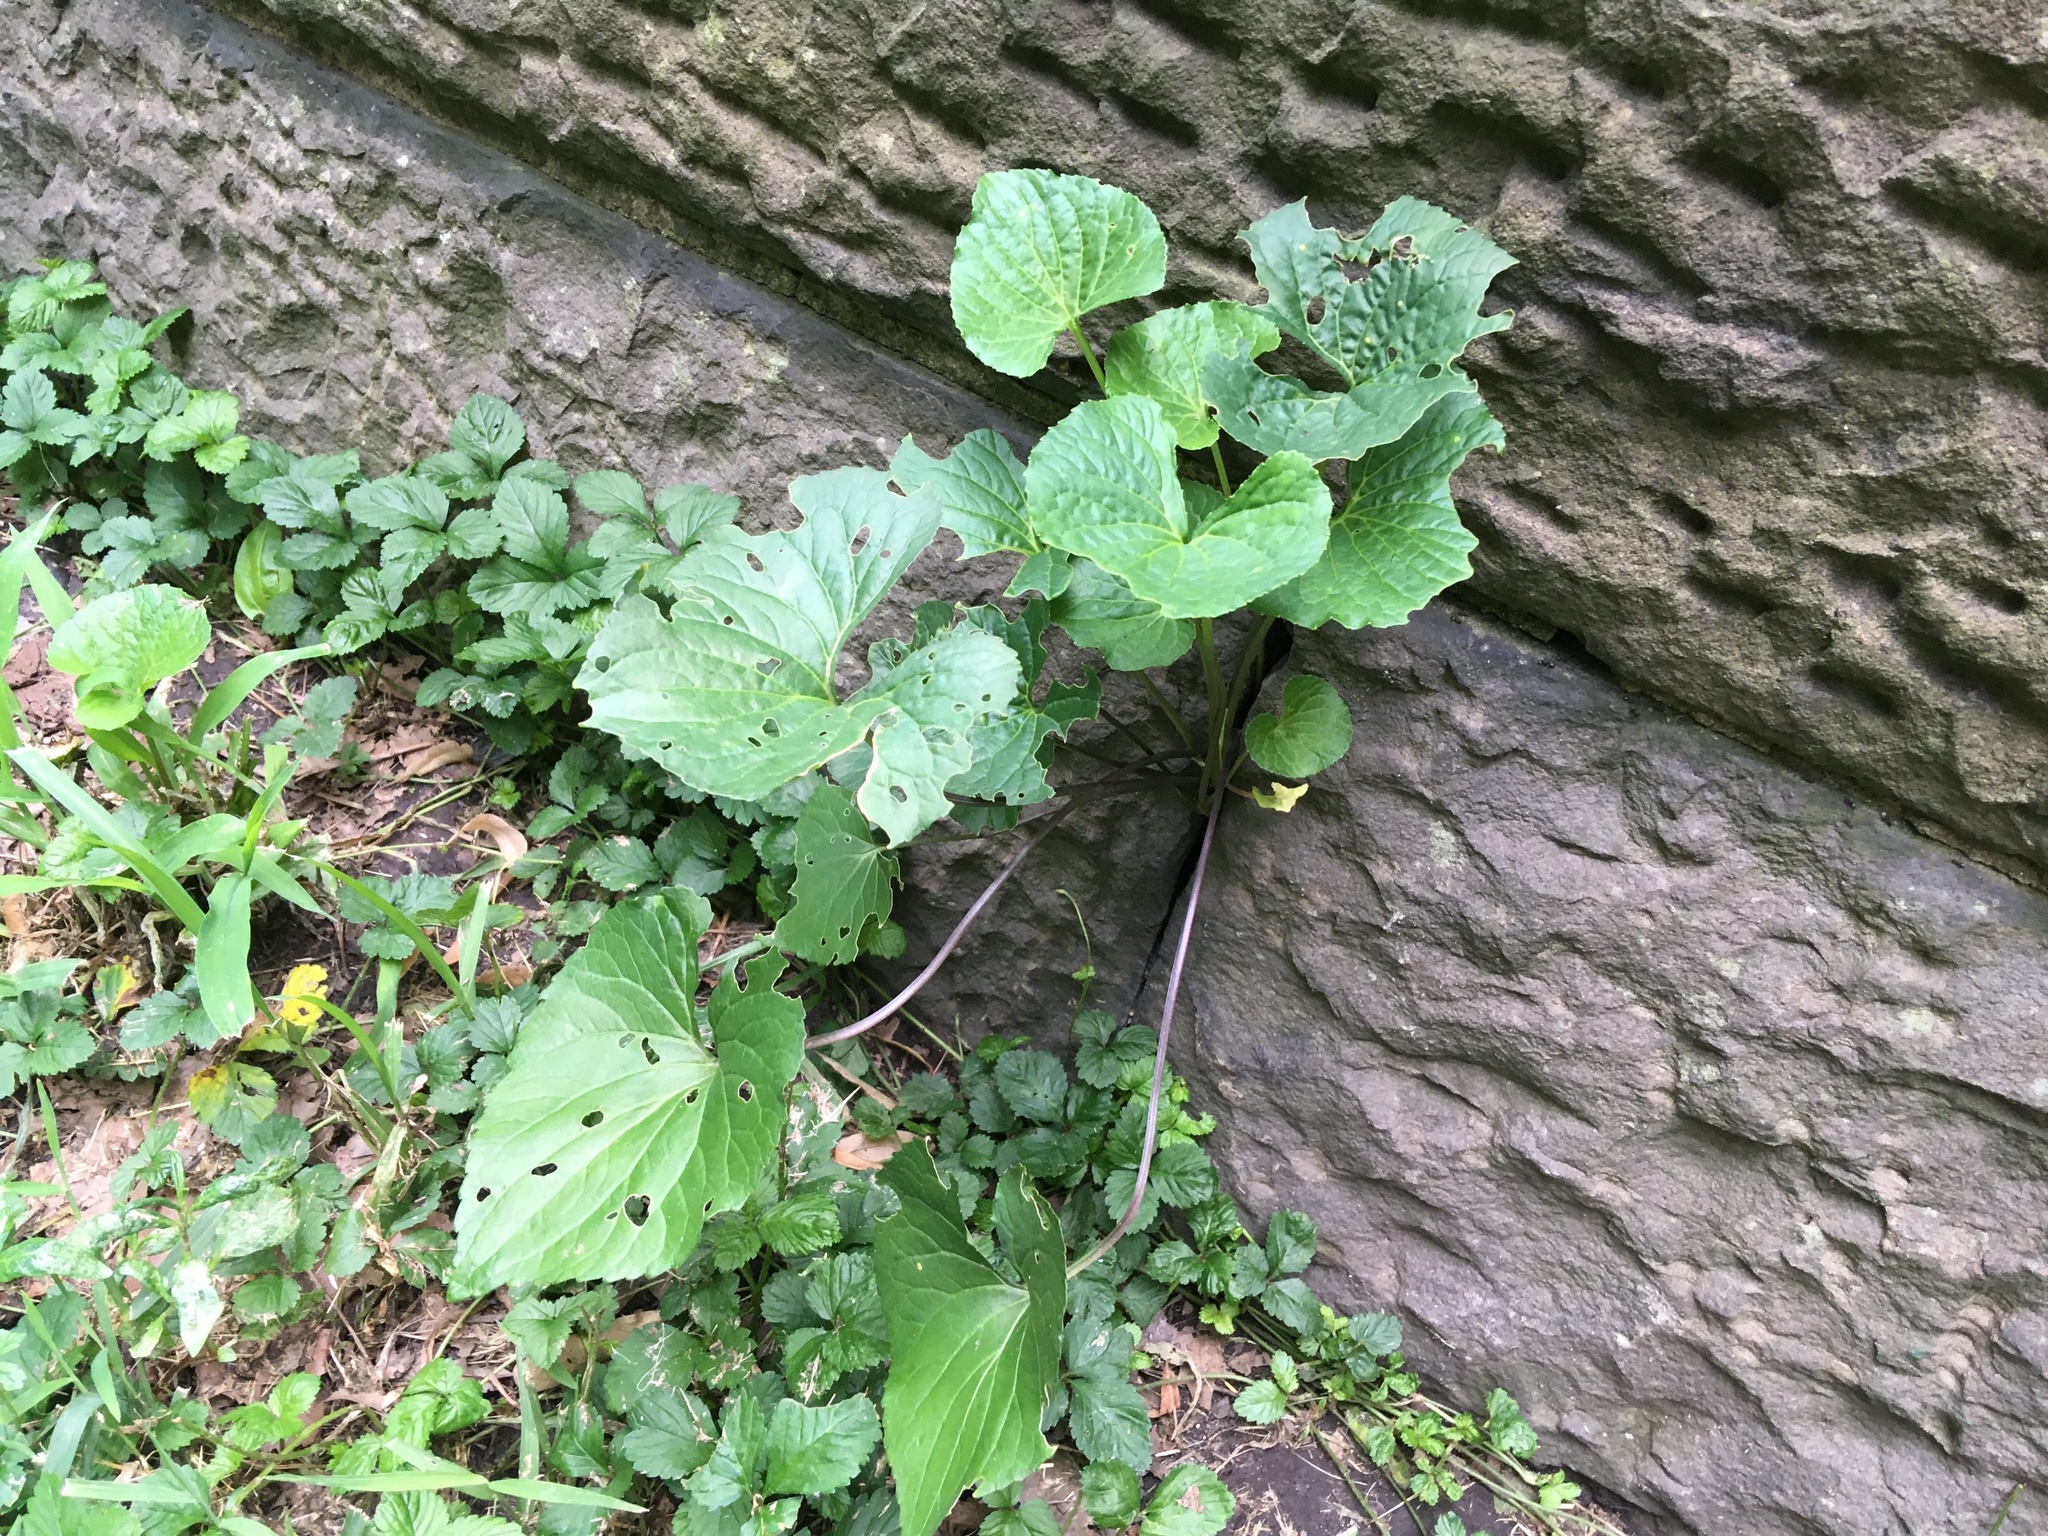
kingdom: Plantae
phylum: Tracheophyta
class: Magnoliopsida
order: Malpighiales
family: Violaceae
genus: Viola
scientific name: Viola sororia
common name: Dooryard violet
